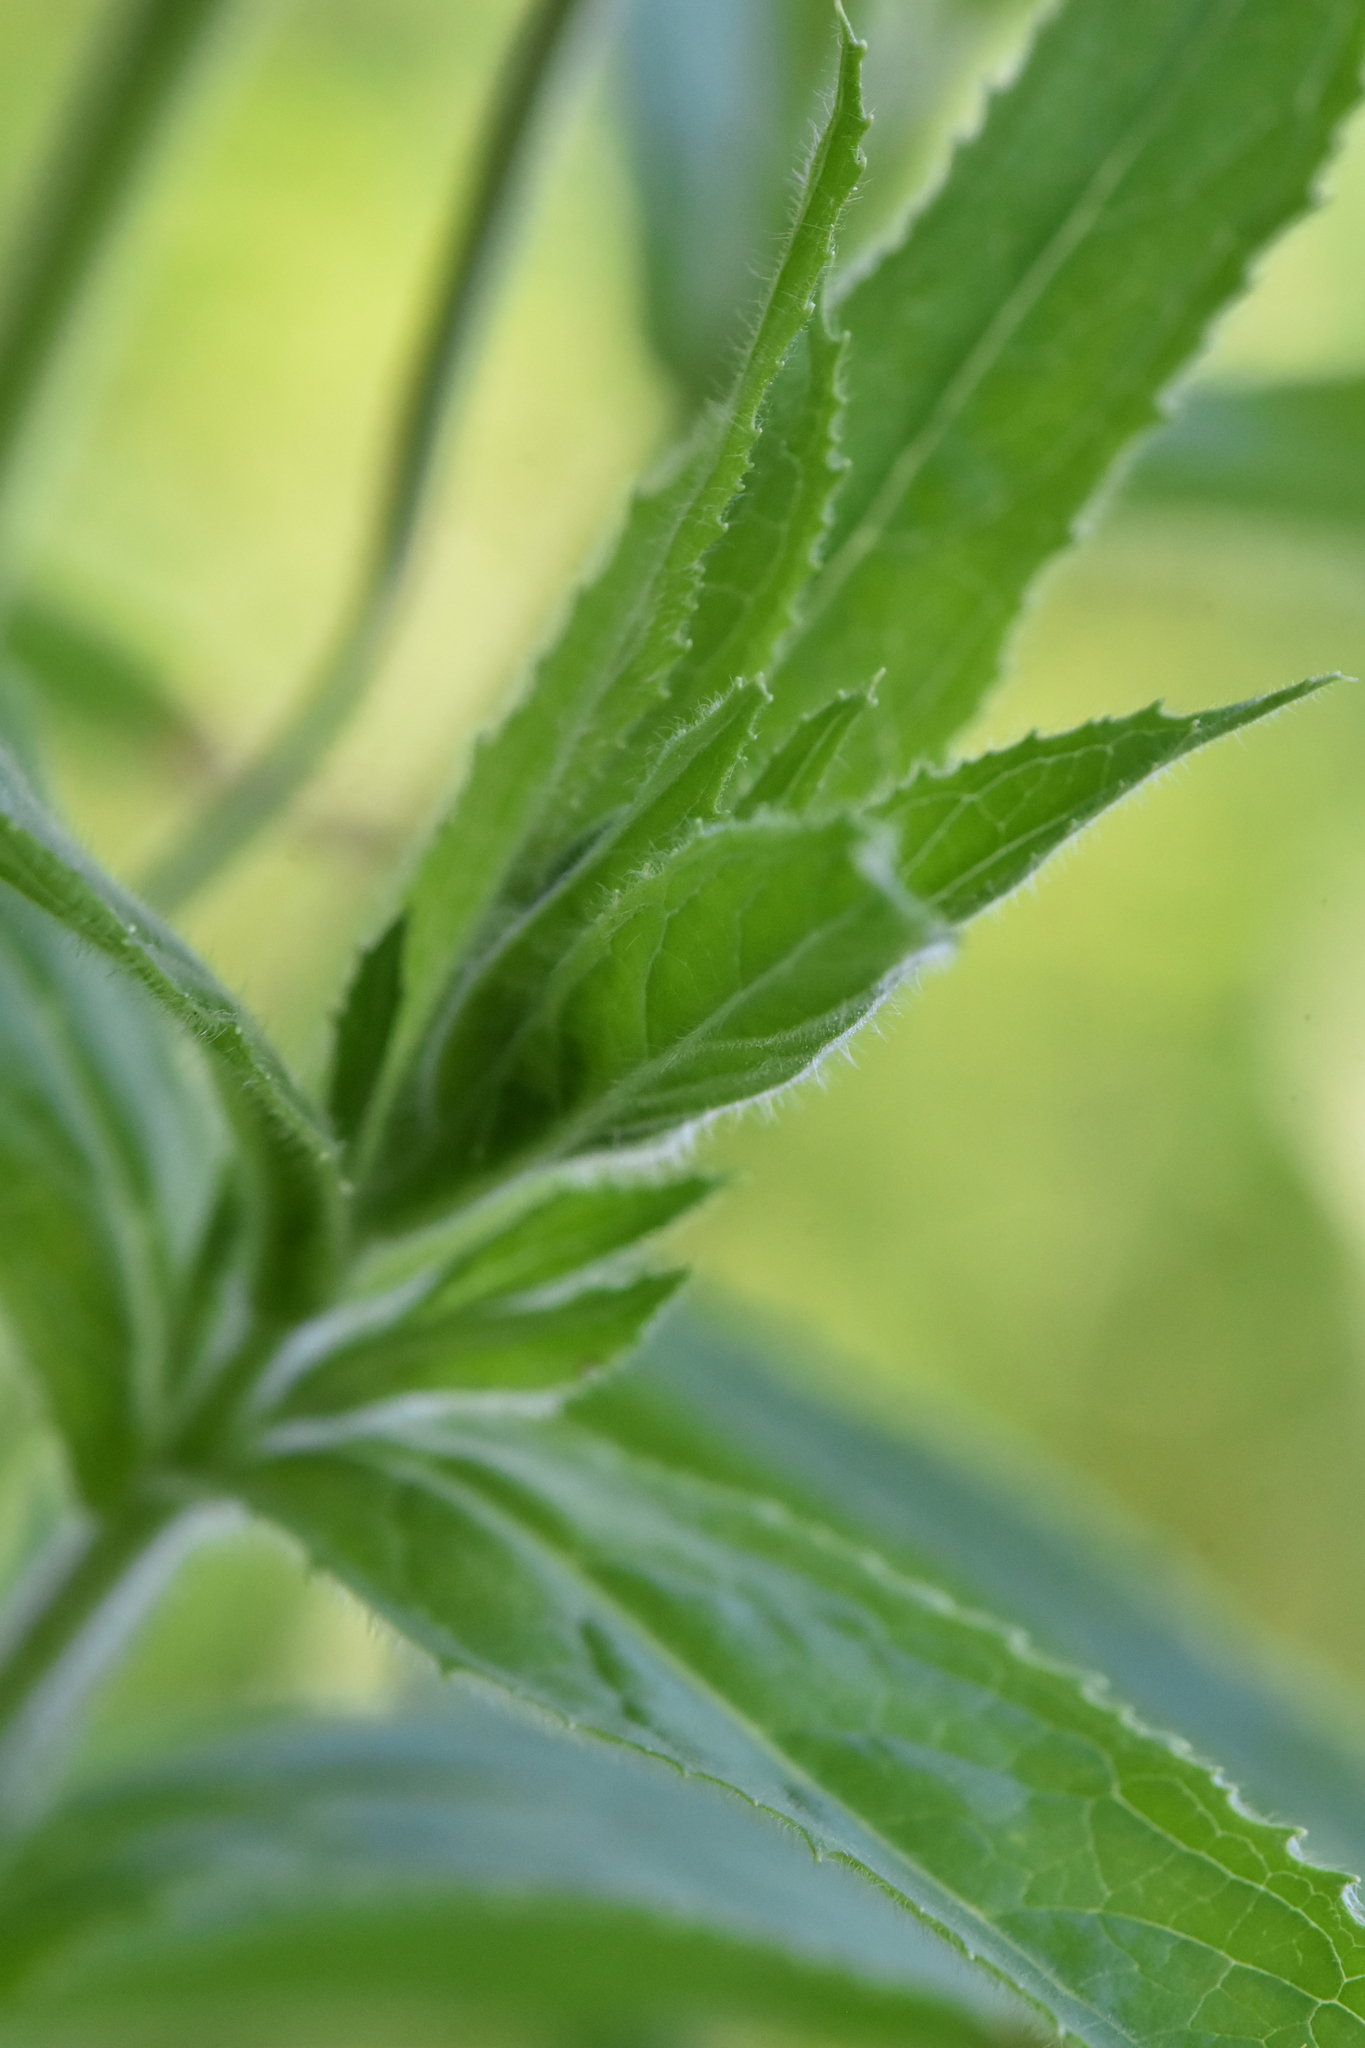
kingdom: Plantae
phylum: Tracheophyta
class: Magnoliopsida
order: Myrtales
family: Onagraceae
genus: Epilobium
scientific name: Epilobium hirsutum
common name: Great willowherb
